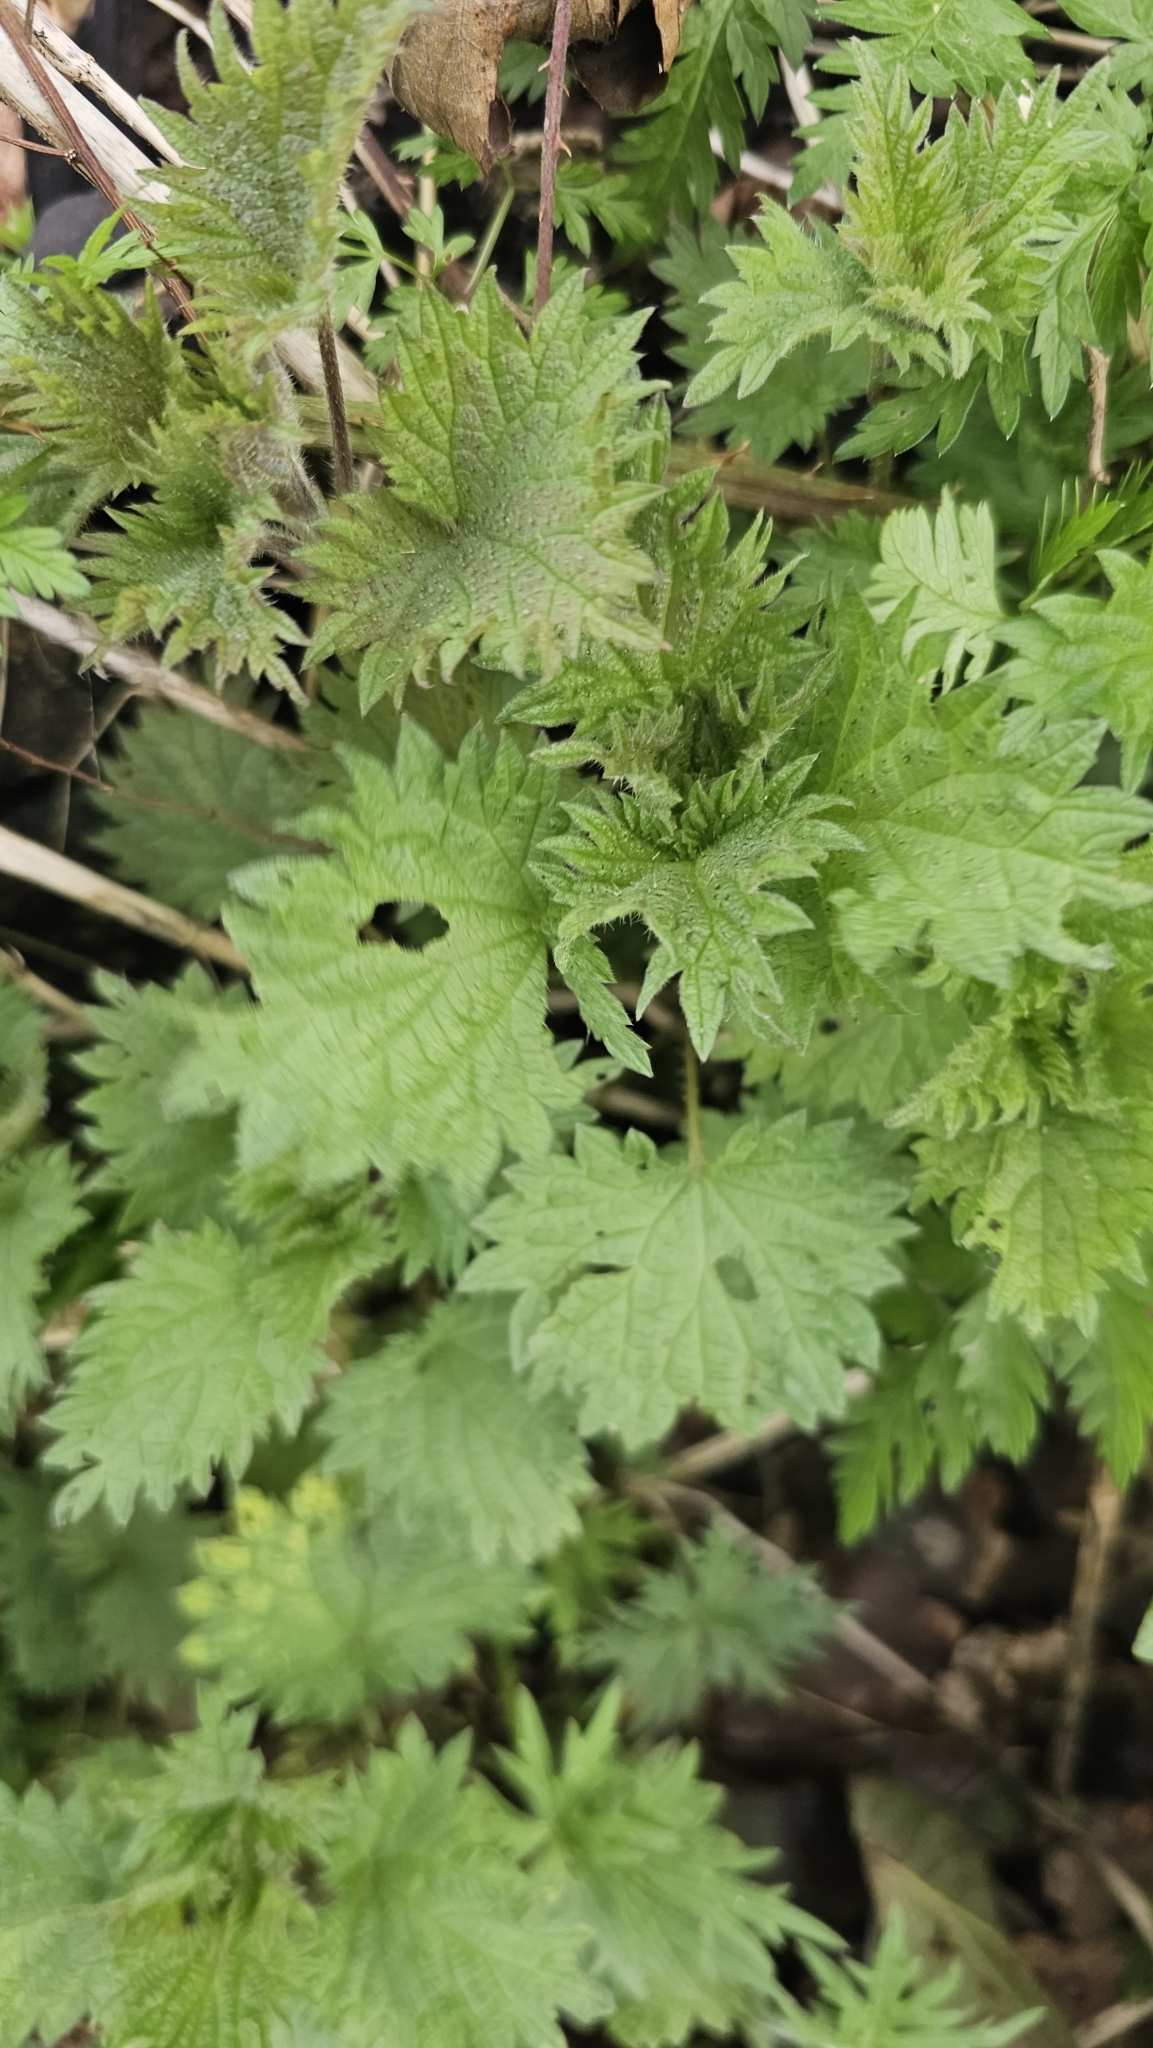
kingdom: Plantae
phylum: Tracheophyta
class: Magnoliopsida
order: Rosales
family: Urticaceae
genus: Urtica
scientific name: Urtica dioica
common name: Common nettle
